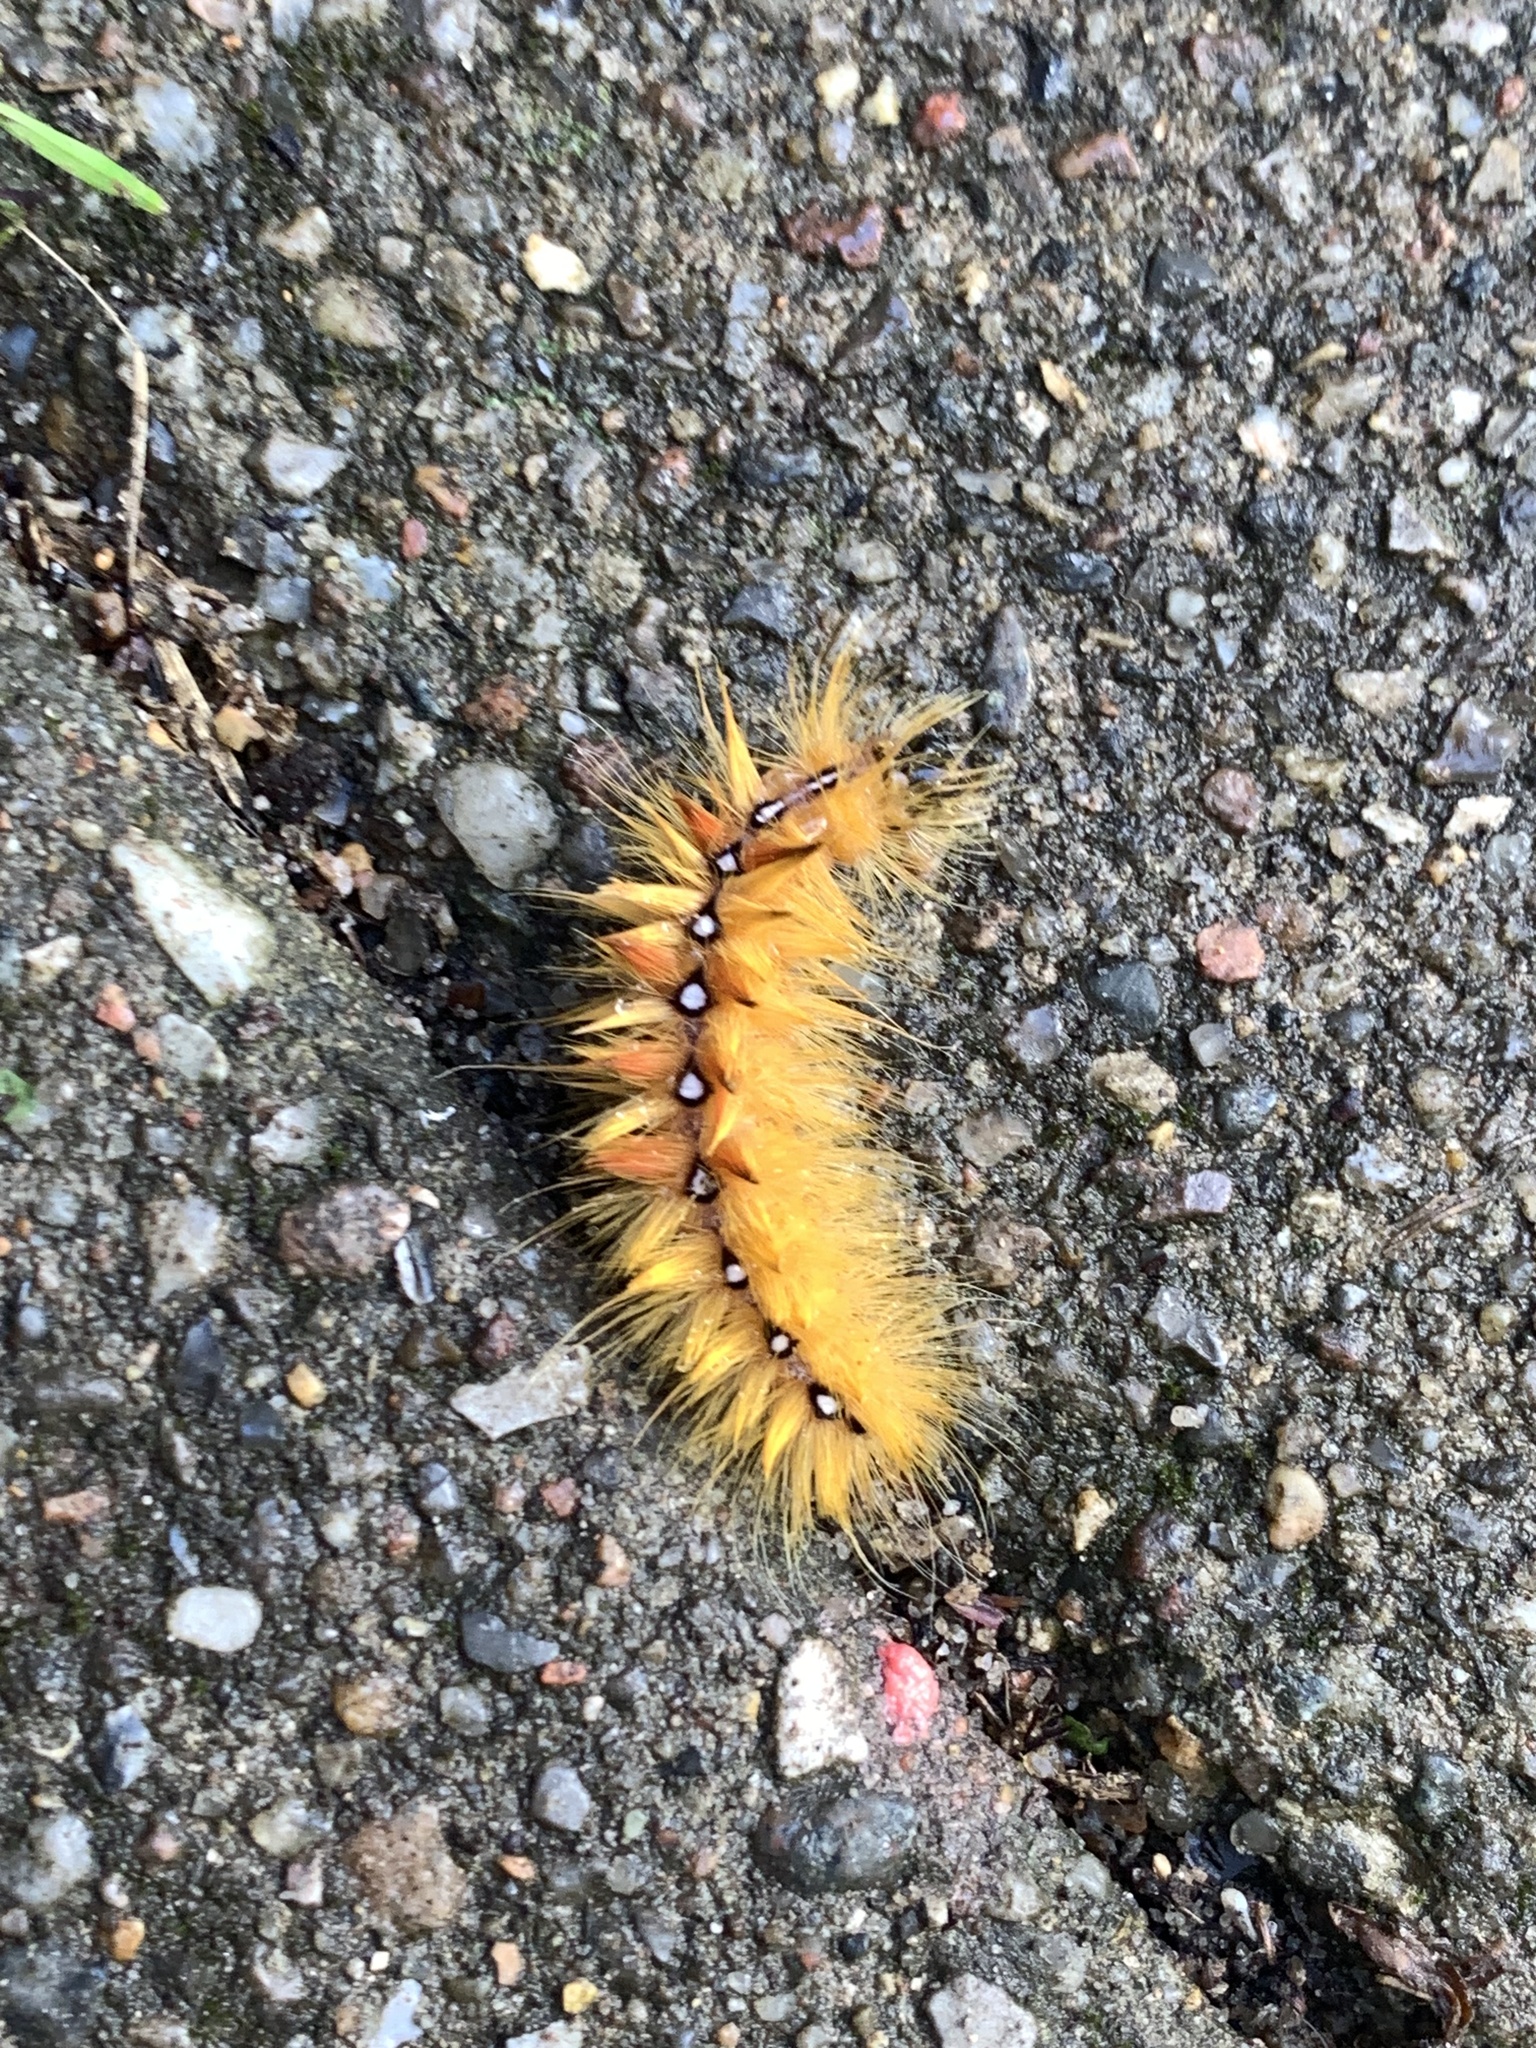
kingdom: Animalia
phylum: Arthropoda
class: Insecta
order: Lepidoptera
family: Noctuidae
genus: Acronicta
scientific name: Acronicta aceris
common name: Sycamore
